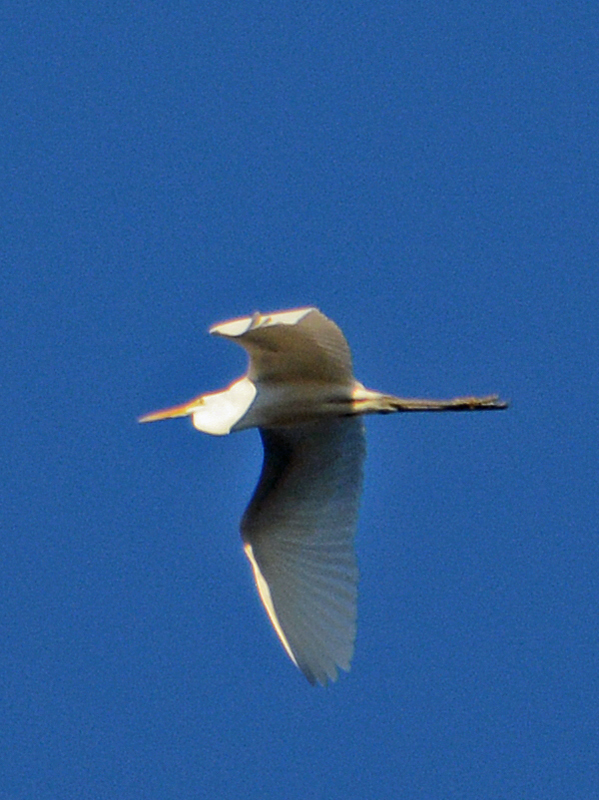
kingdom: Animalia
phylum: Chordata
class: Aves
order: Pelecaniformes
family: Ardeidae
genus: Ardea
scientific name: Ardea alba
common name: Great egret
